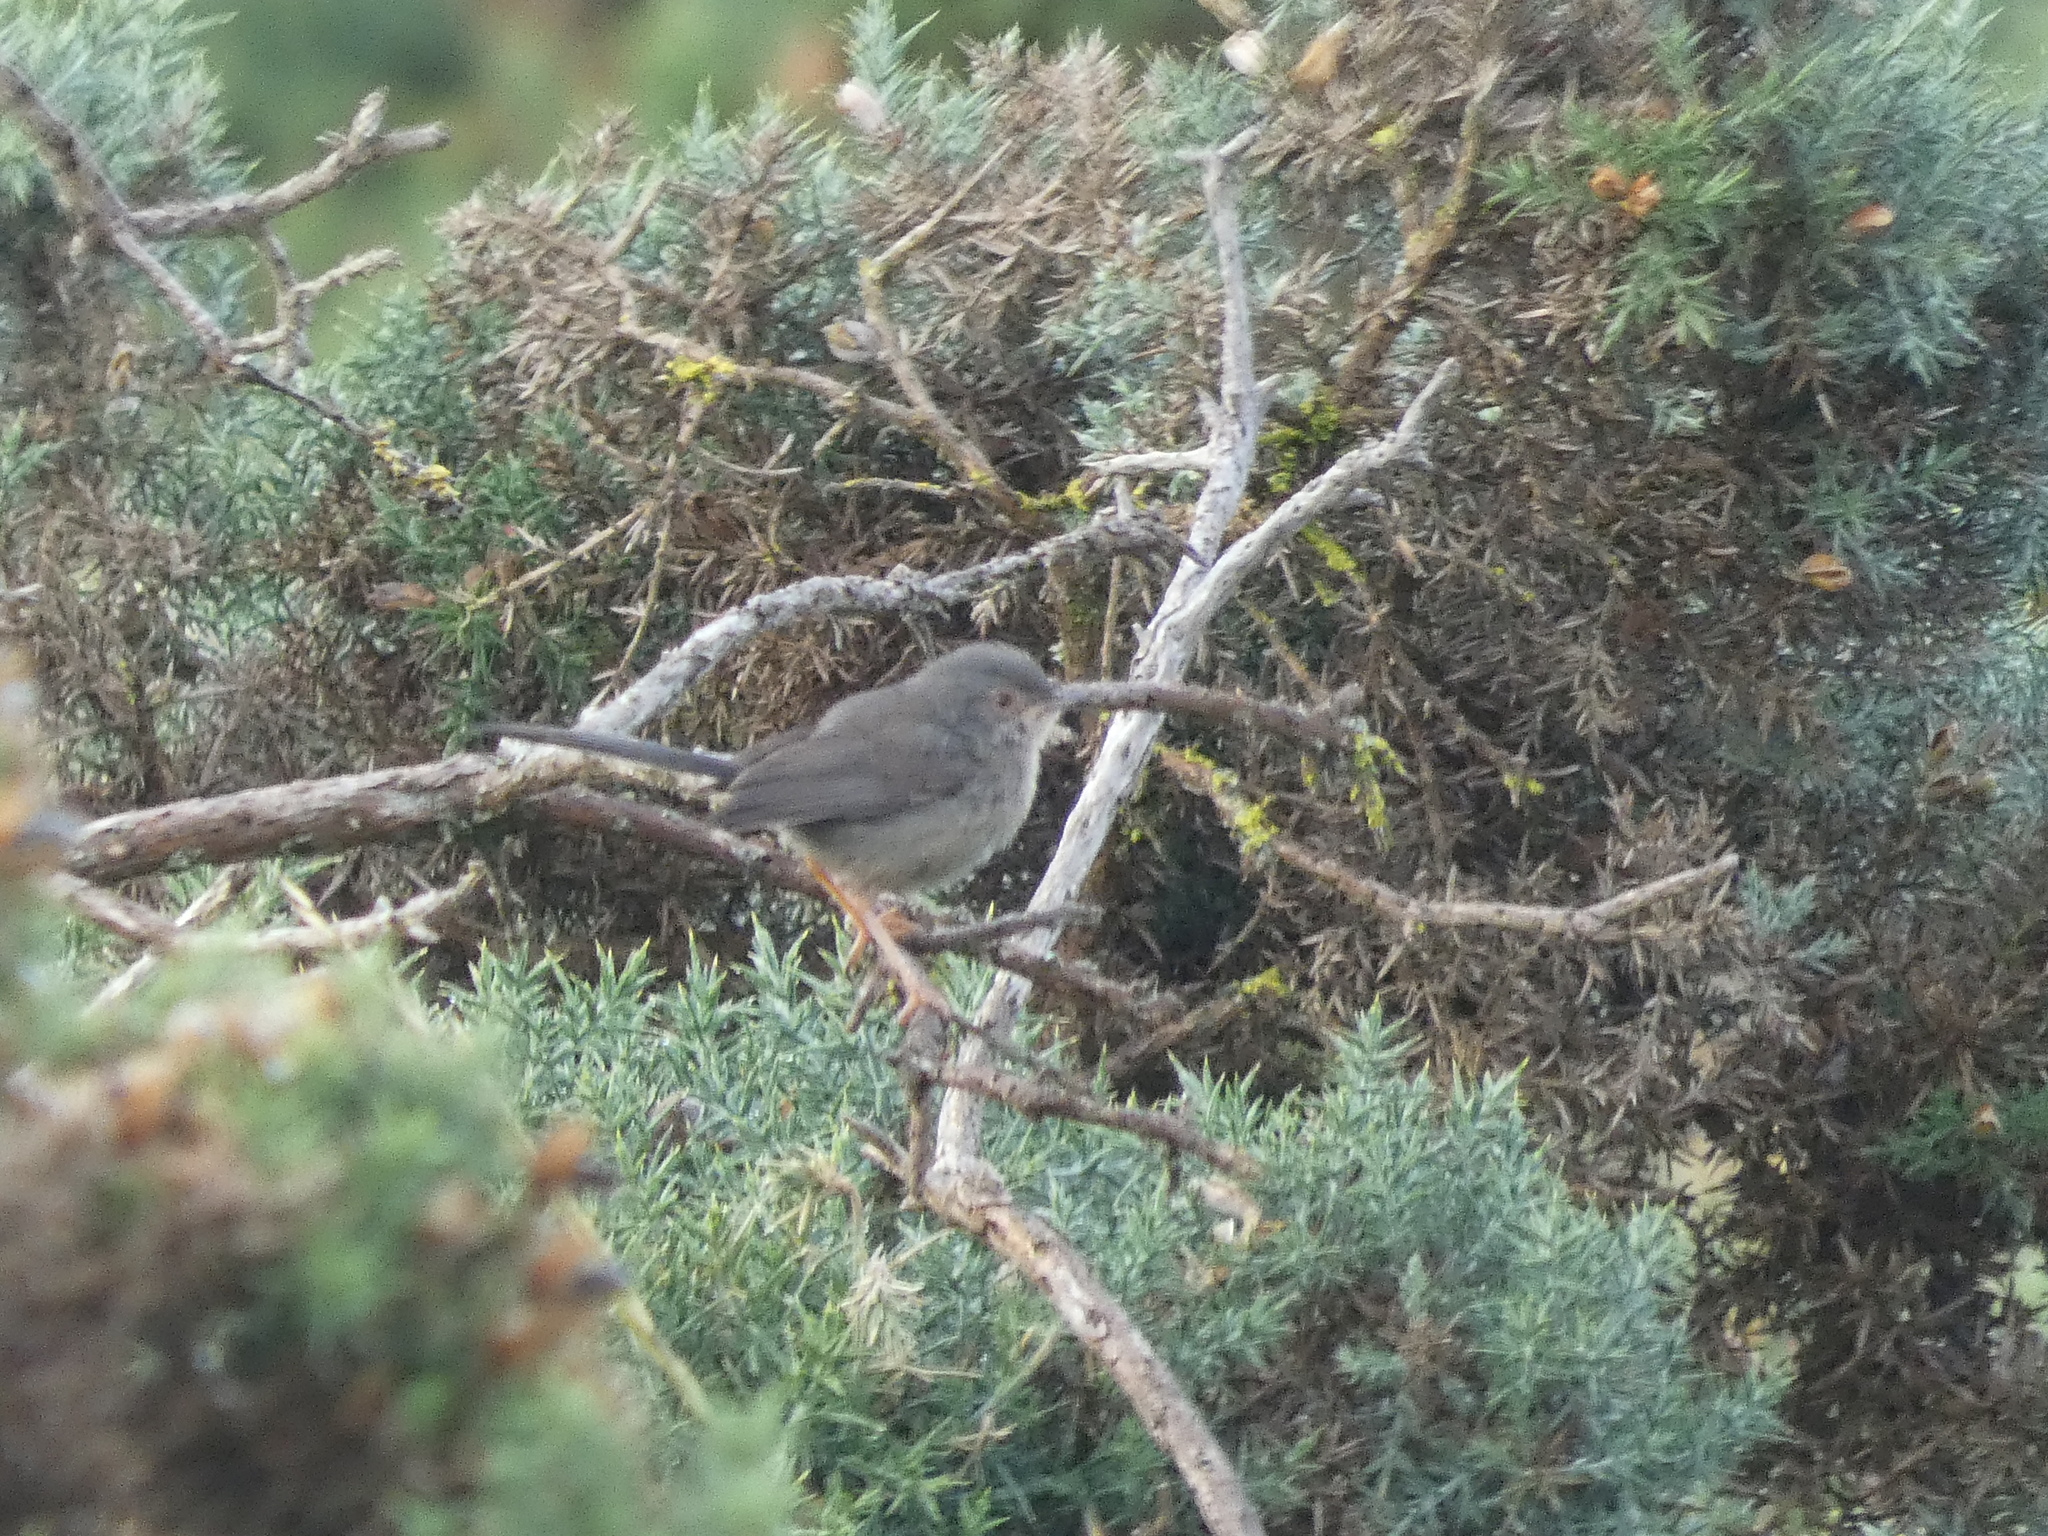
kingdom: Animalia
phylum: Chordata
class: Aves
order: Passeriformes
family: Sylviidae
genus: Sylvia
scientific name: Sylvia undata
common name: Dartford warbler
